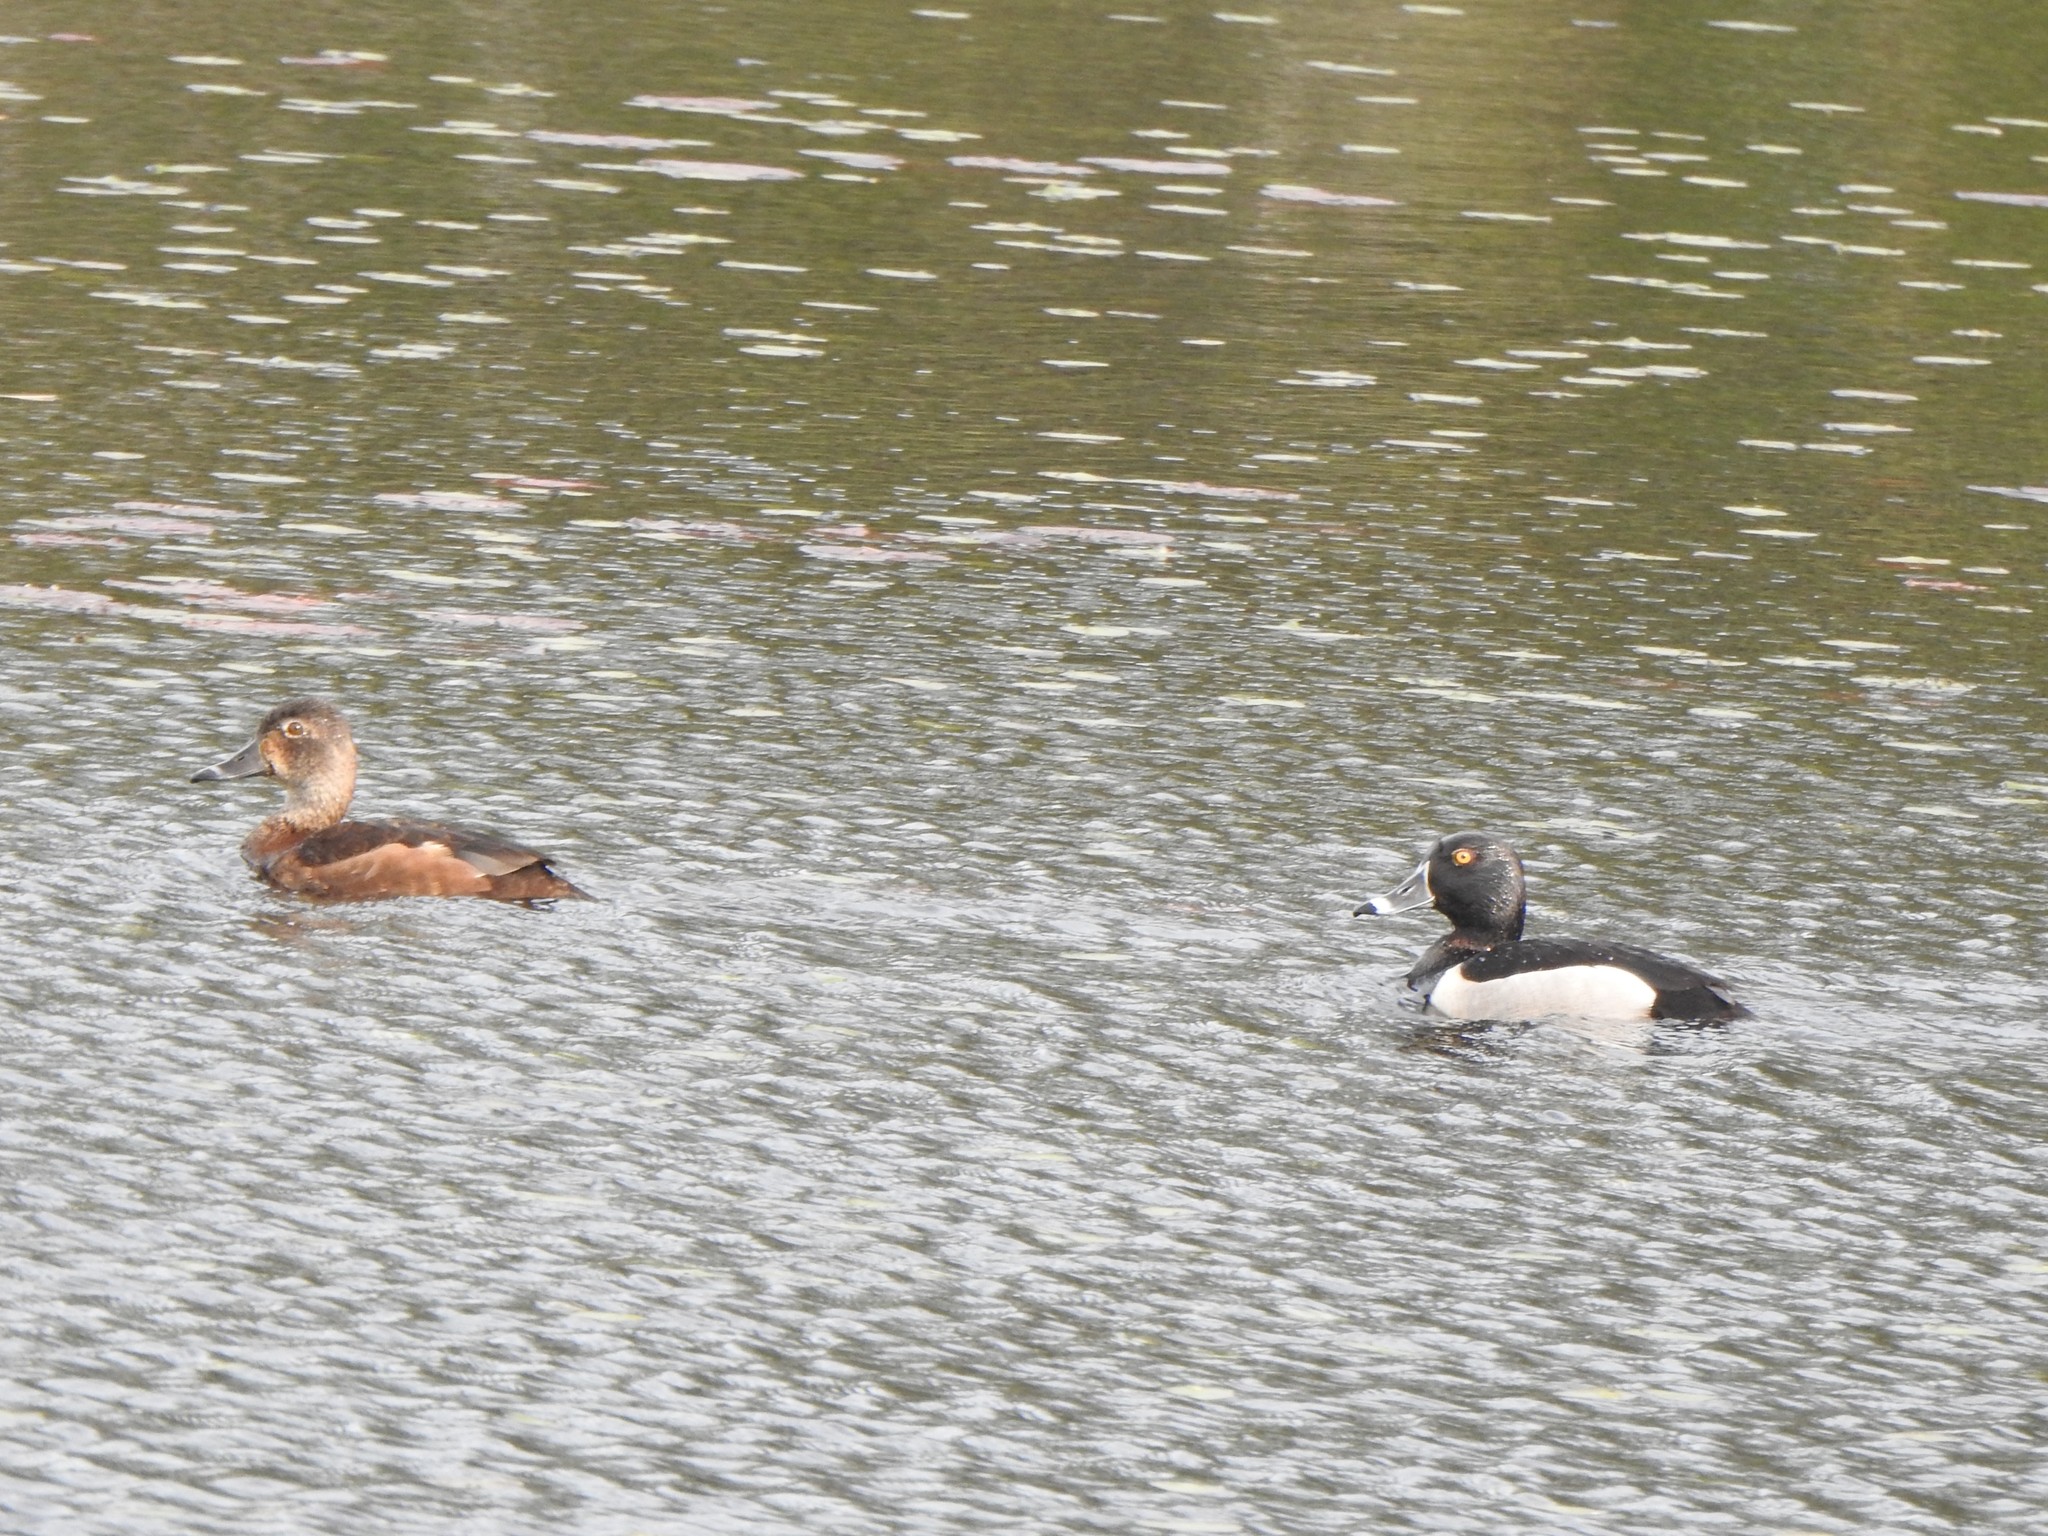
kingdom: Animalia
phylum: Chordata
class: Aves
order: Anseriformes
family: Anatidae
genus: Aythya
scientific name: Aythya collaris
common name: Ring-necked duck
